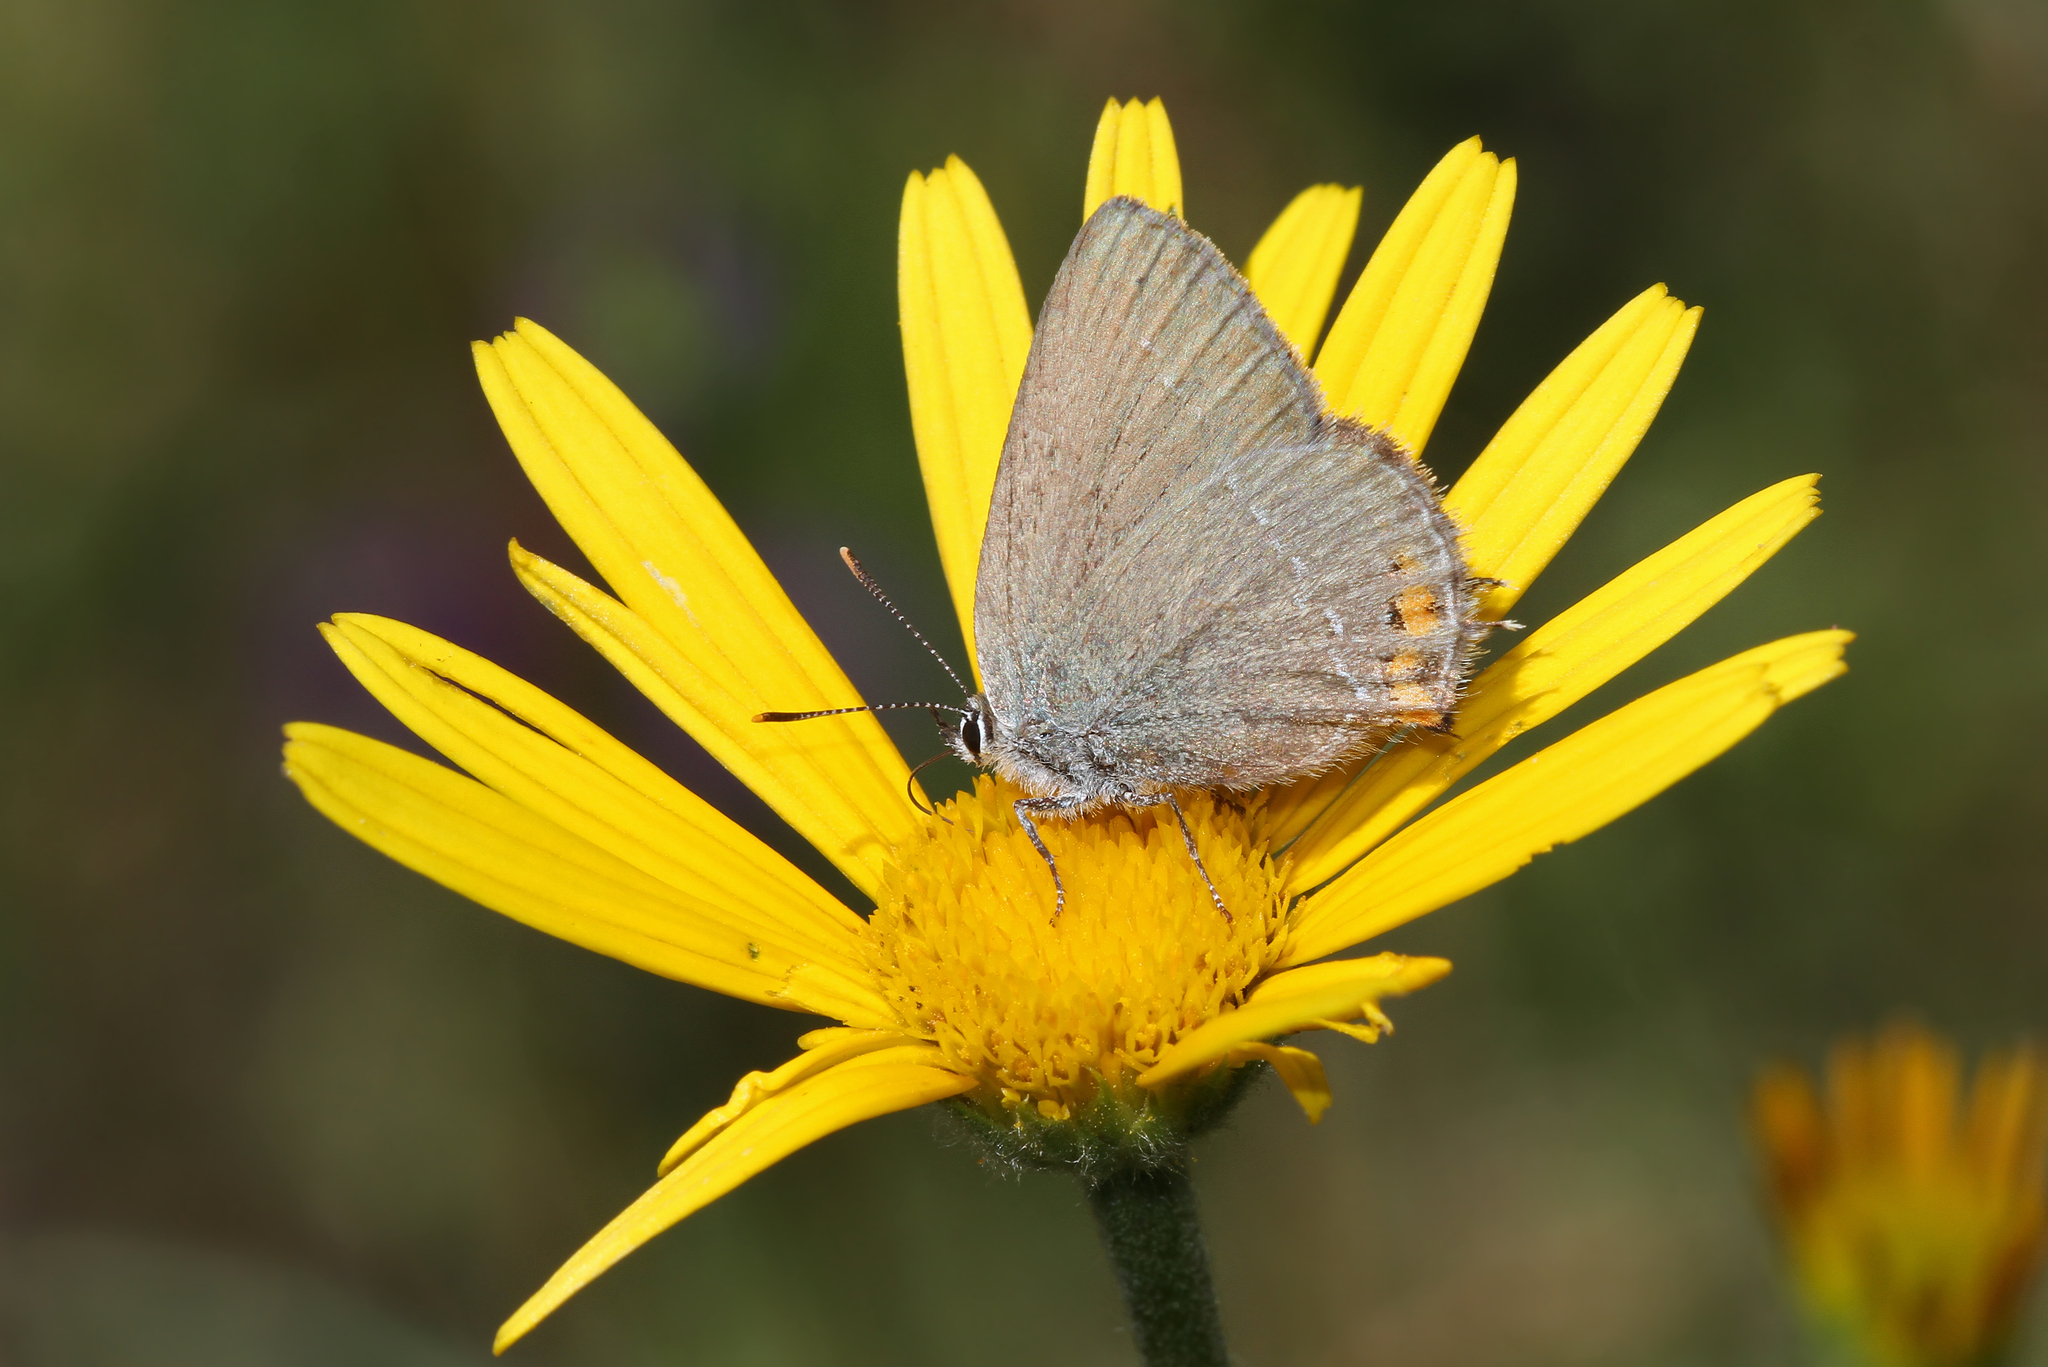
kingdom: Animalia
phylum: Arthropoda
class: Insecta
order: Lepidoptera
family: Lycaenidae
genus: Strymon
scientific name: Strymon acaciae
